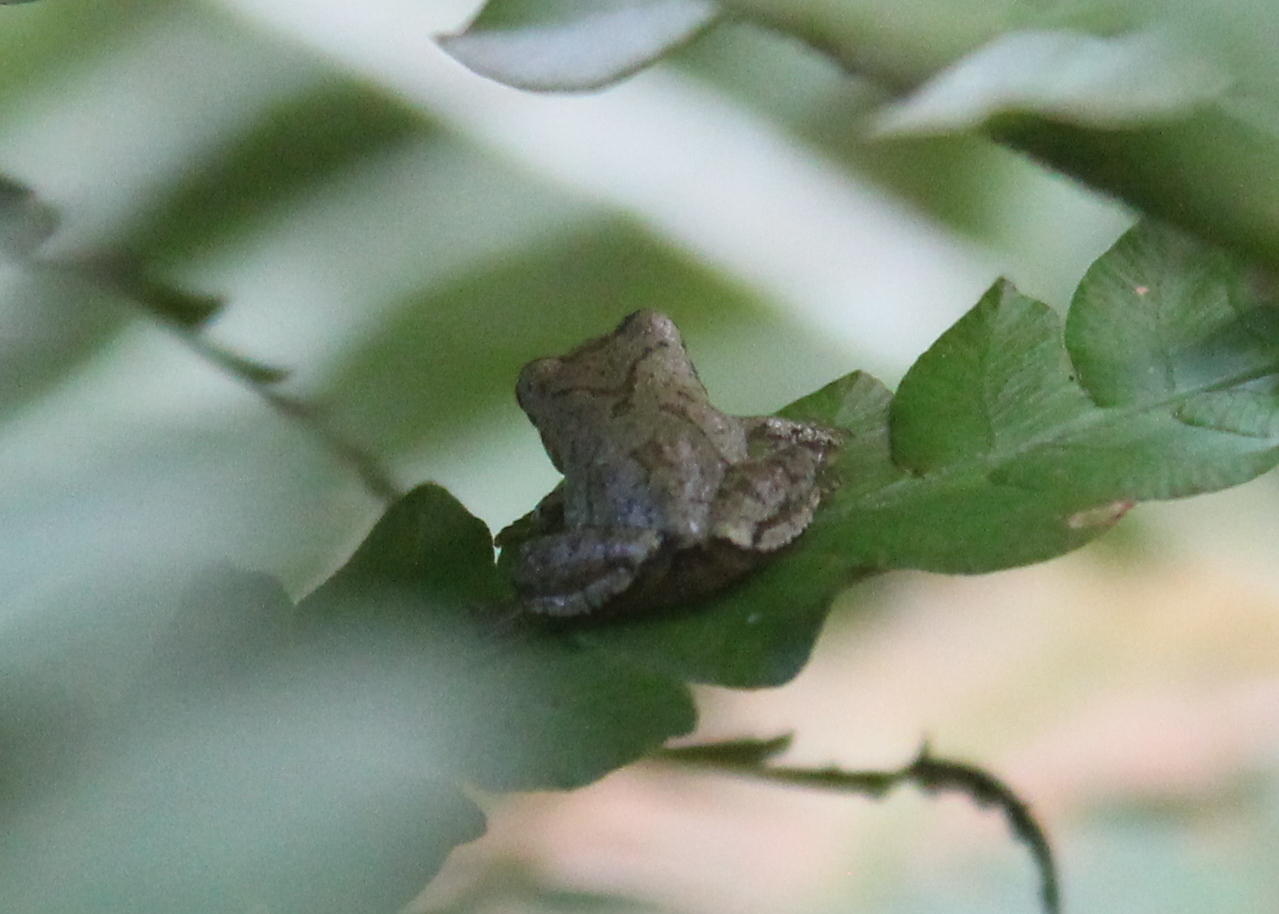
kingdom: Animalia
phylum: Chordata
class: Amphibia
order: Anura
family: Hylidae
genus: Pseudacris
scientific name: Pseudacris crucifer
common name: Spring peeper
